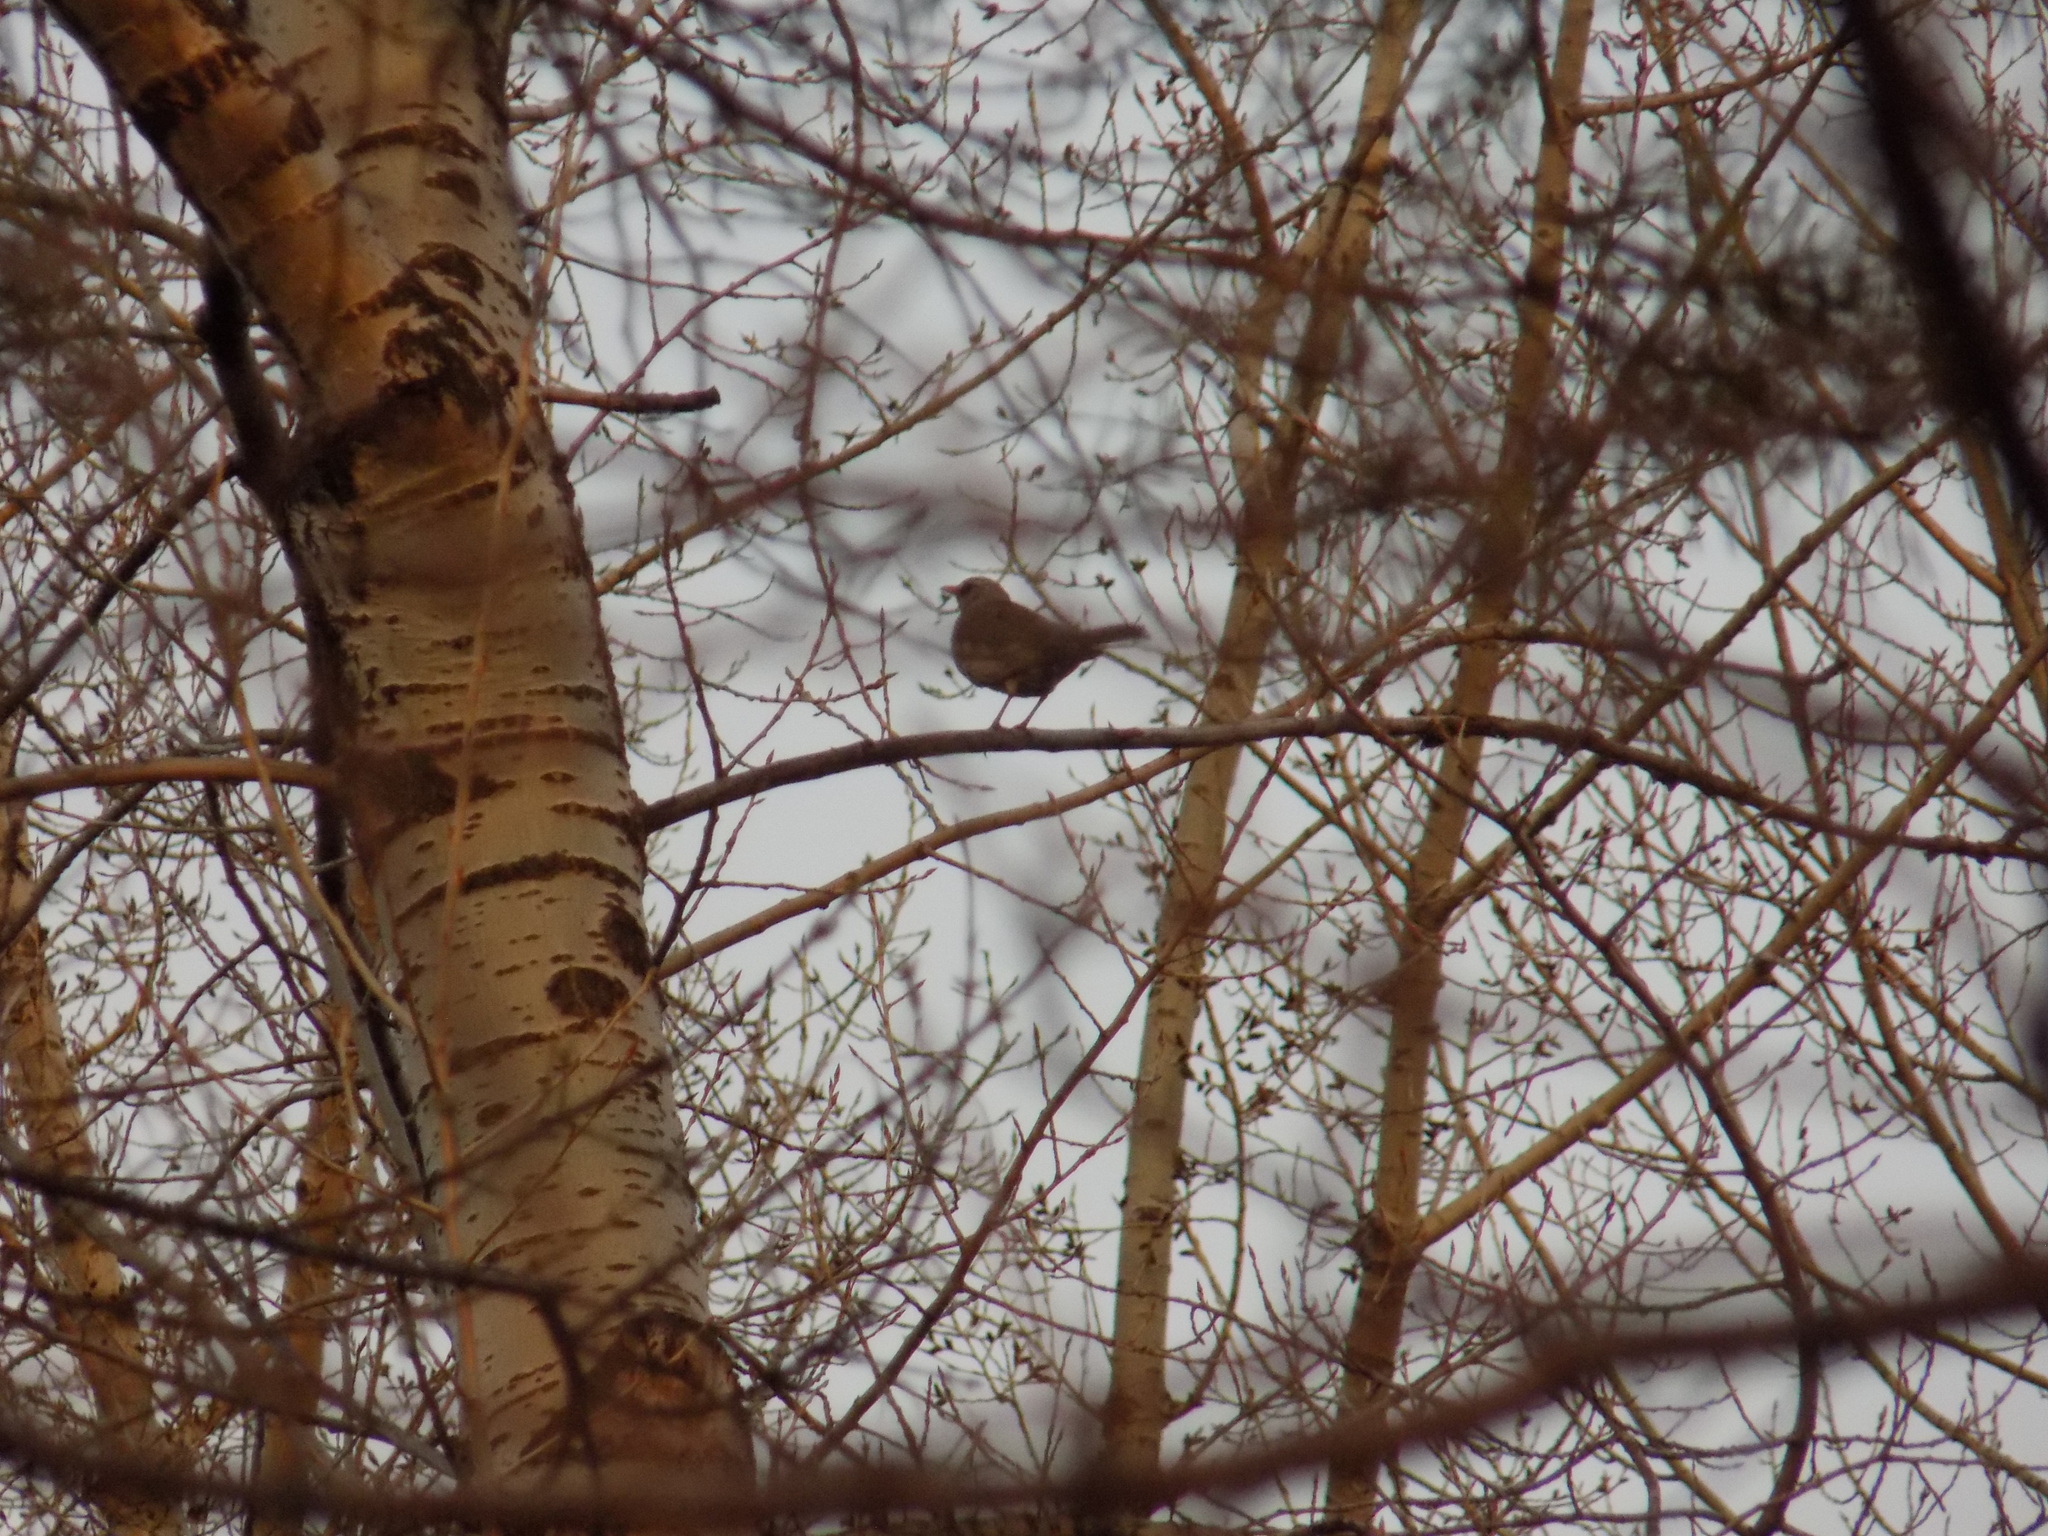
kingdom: Animalia
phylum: Chordata
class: Aves
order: Passeriformes
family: Turdidae
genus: Turdus
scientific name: Turdus atrogularis
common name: Black-throated thrush
